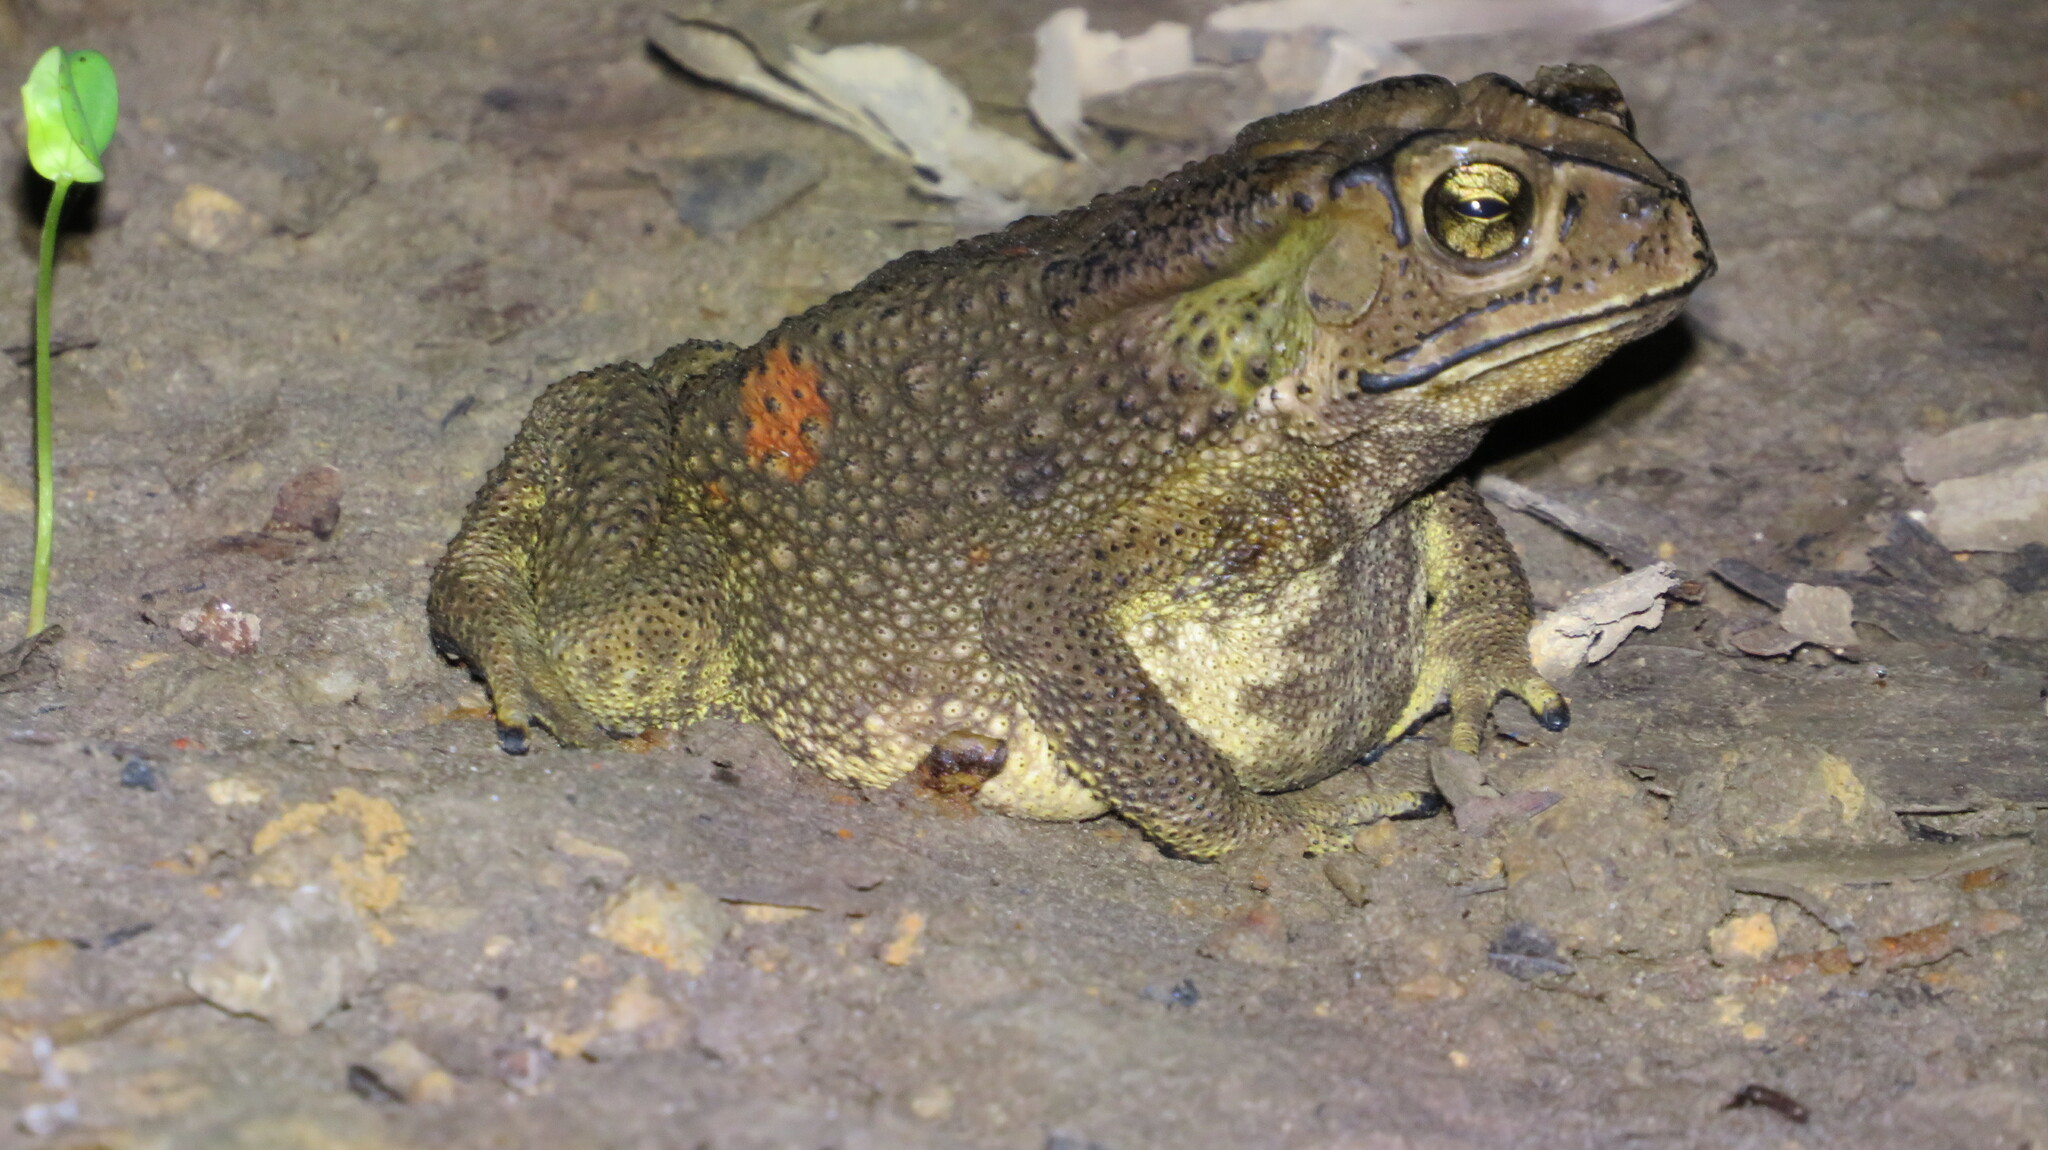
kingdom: Animalia
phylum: Chordata
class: Amphibia
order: Anura
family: Bufonidae
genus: Duttaphrynus
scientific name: Duttaphrynus melanostictus
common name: Common sunda toad
